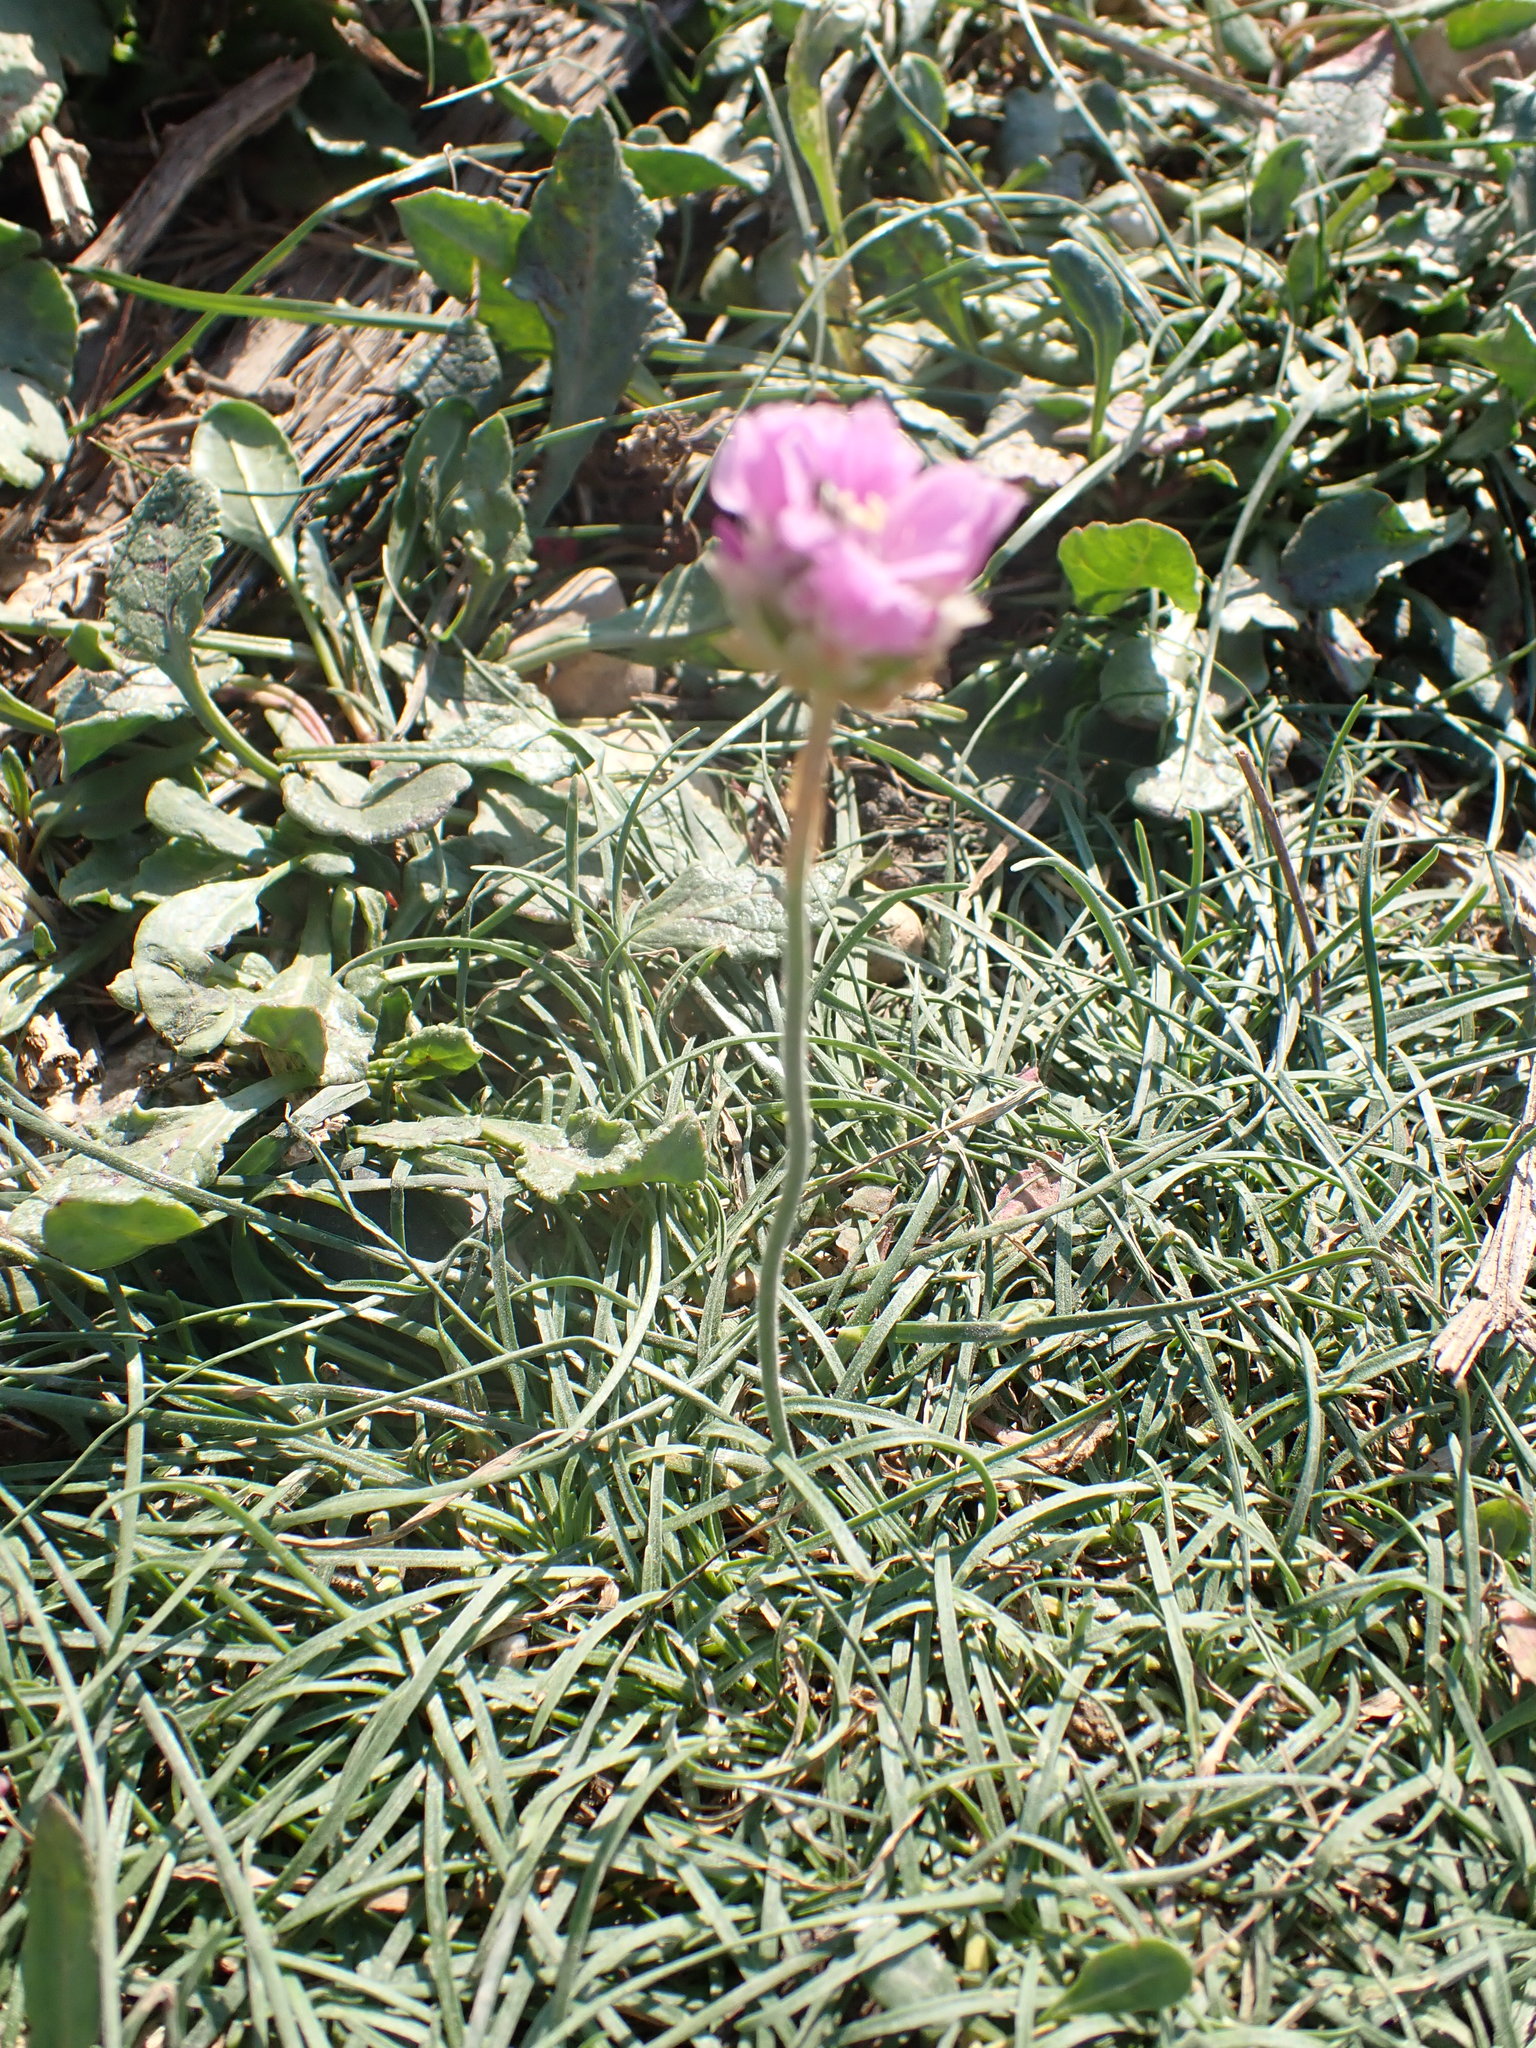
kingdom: Plantae
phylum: Tracheophyta
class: Magnoliopsida
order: Caryophyllales
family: Plumbaginaceae
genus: Armeria
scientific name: Armeria maritima
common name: Thrift
